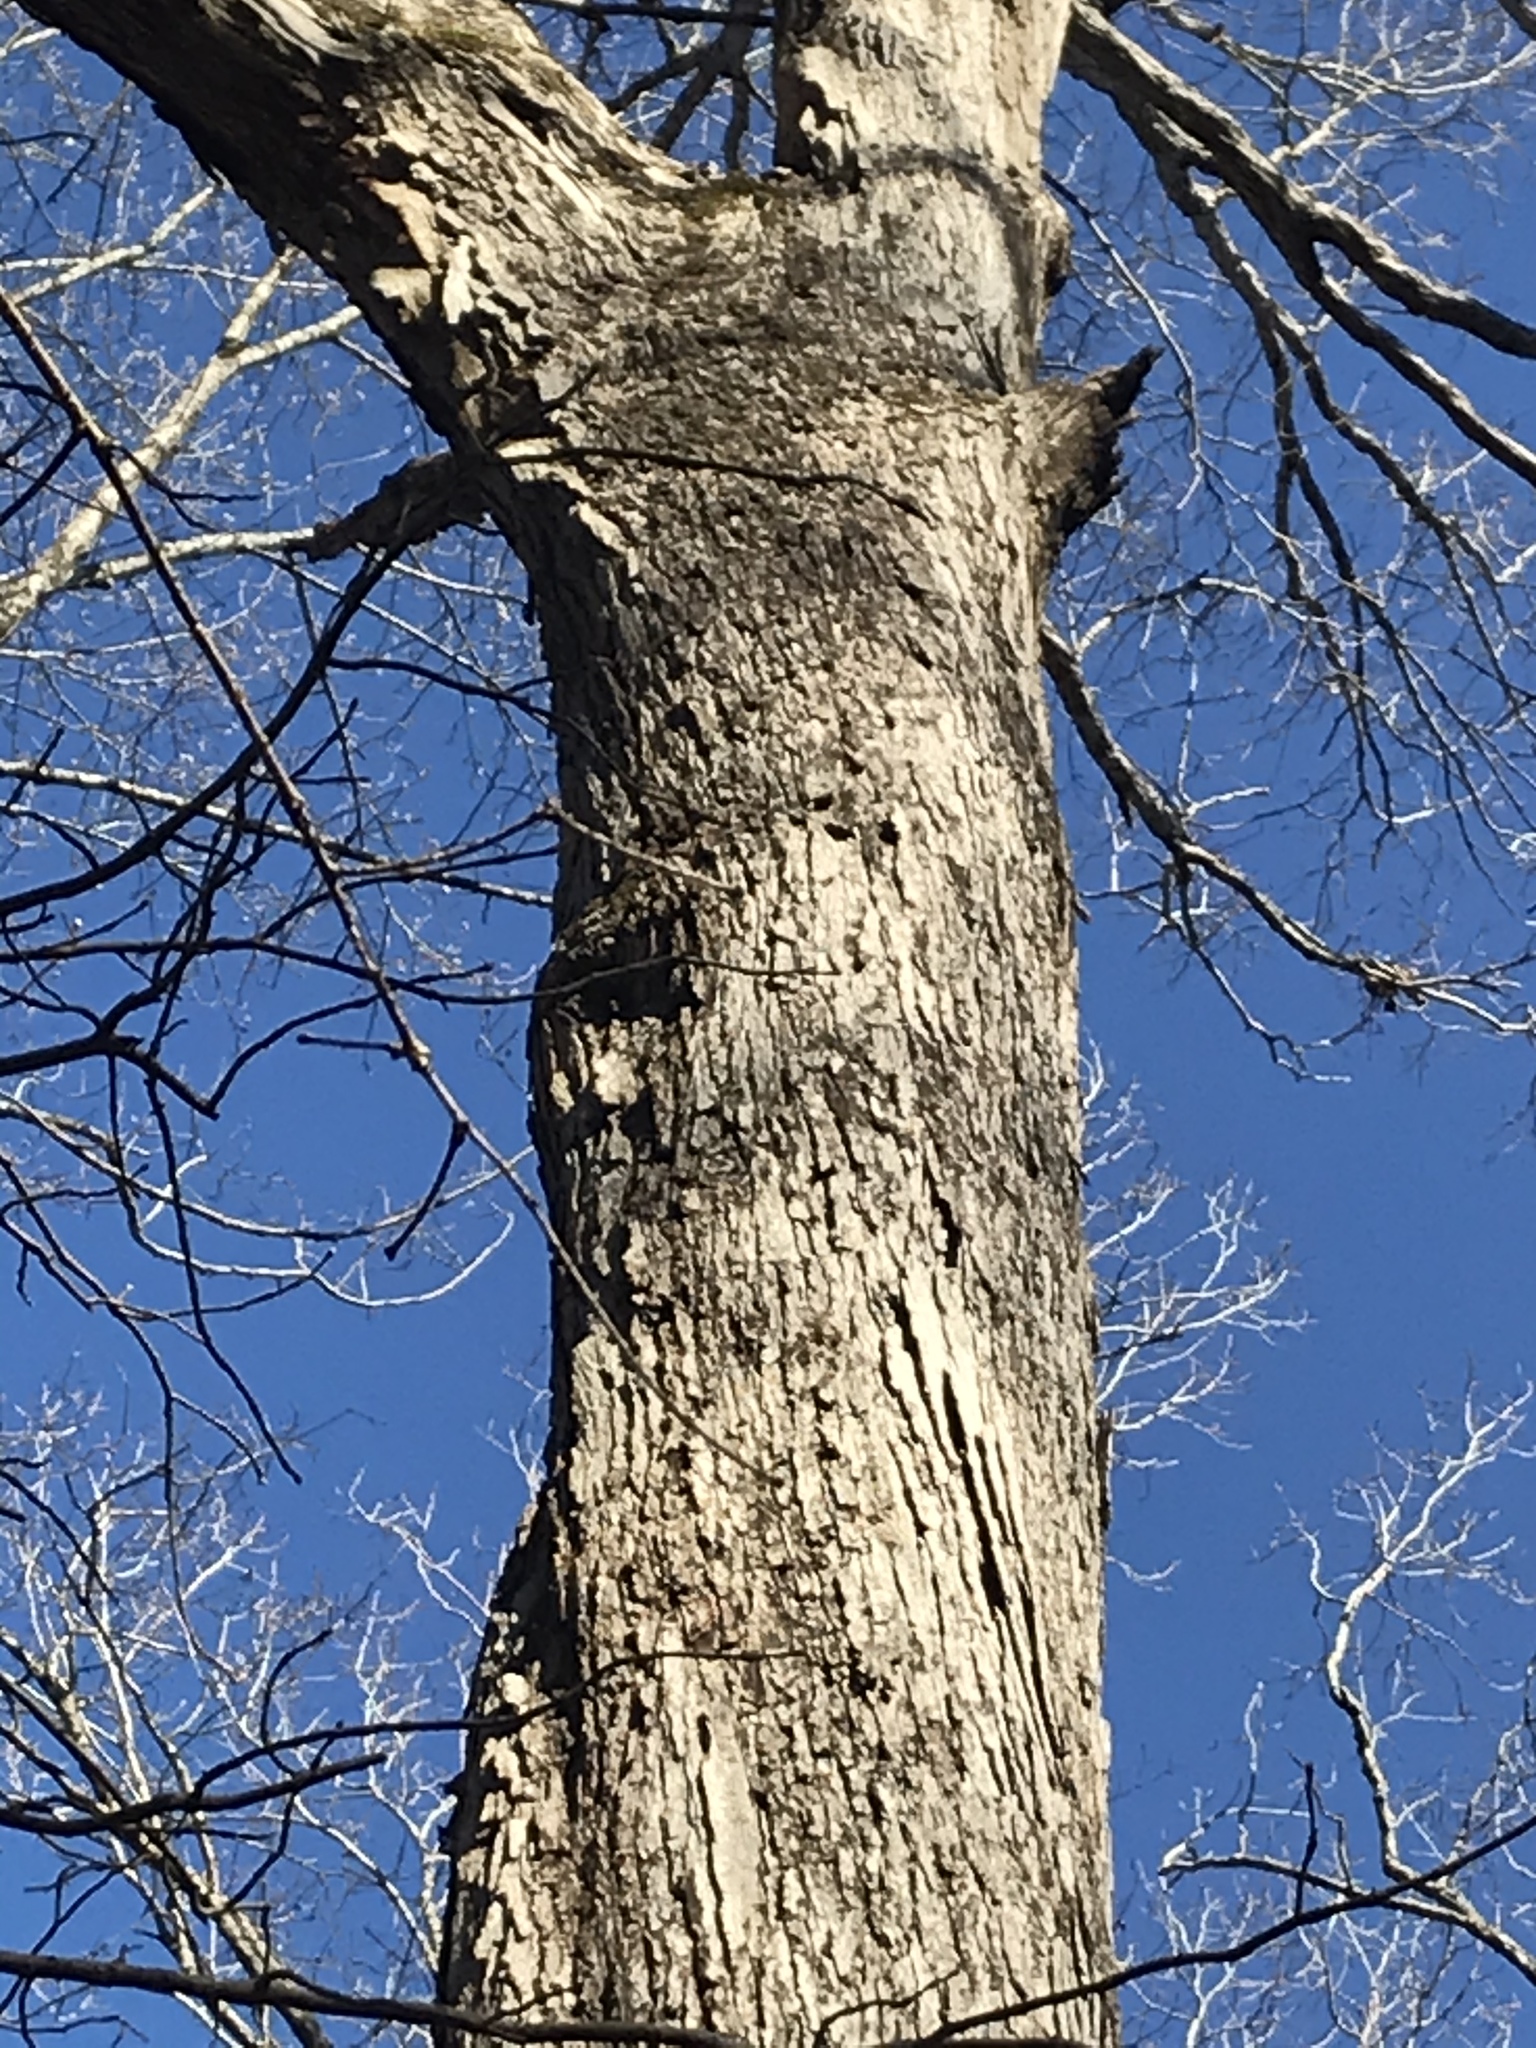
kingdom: Plantae
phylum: Tracheophyta
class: Magnoliopsida
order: Fagales
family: Fagaceae
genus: Quercus
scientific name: Quercus alba
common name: White oak
